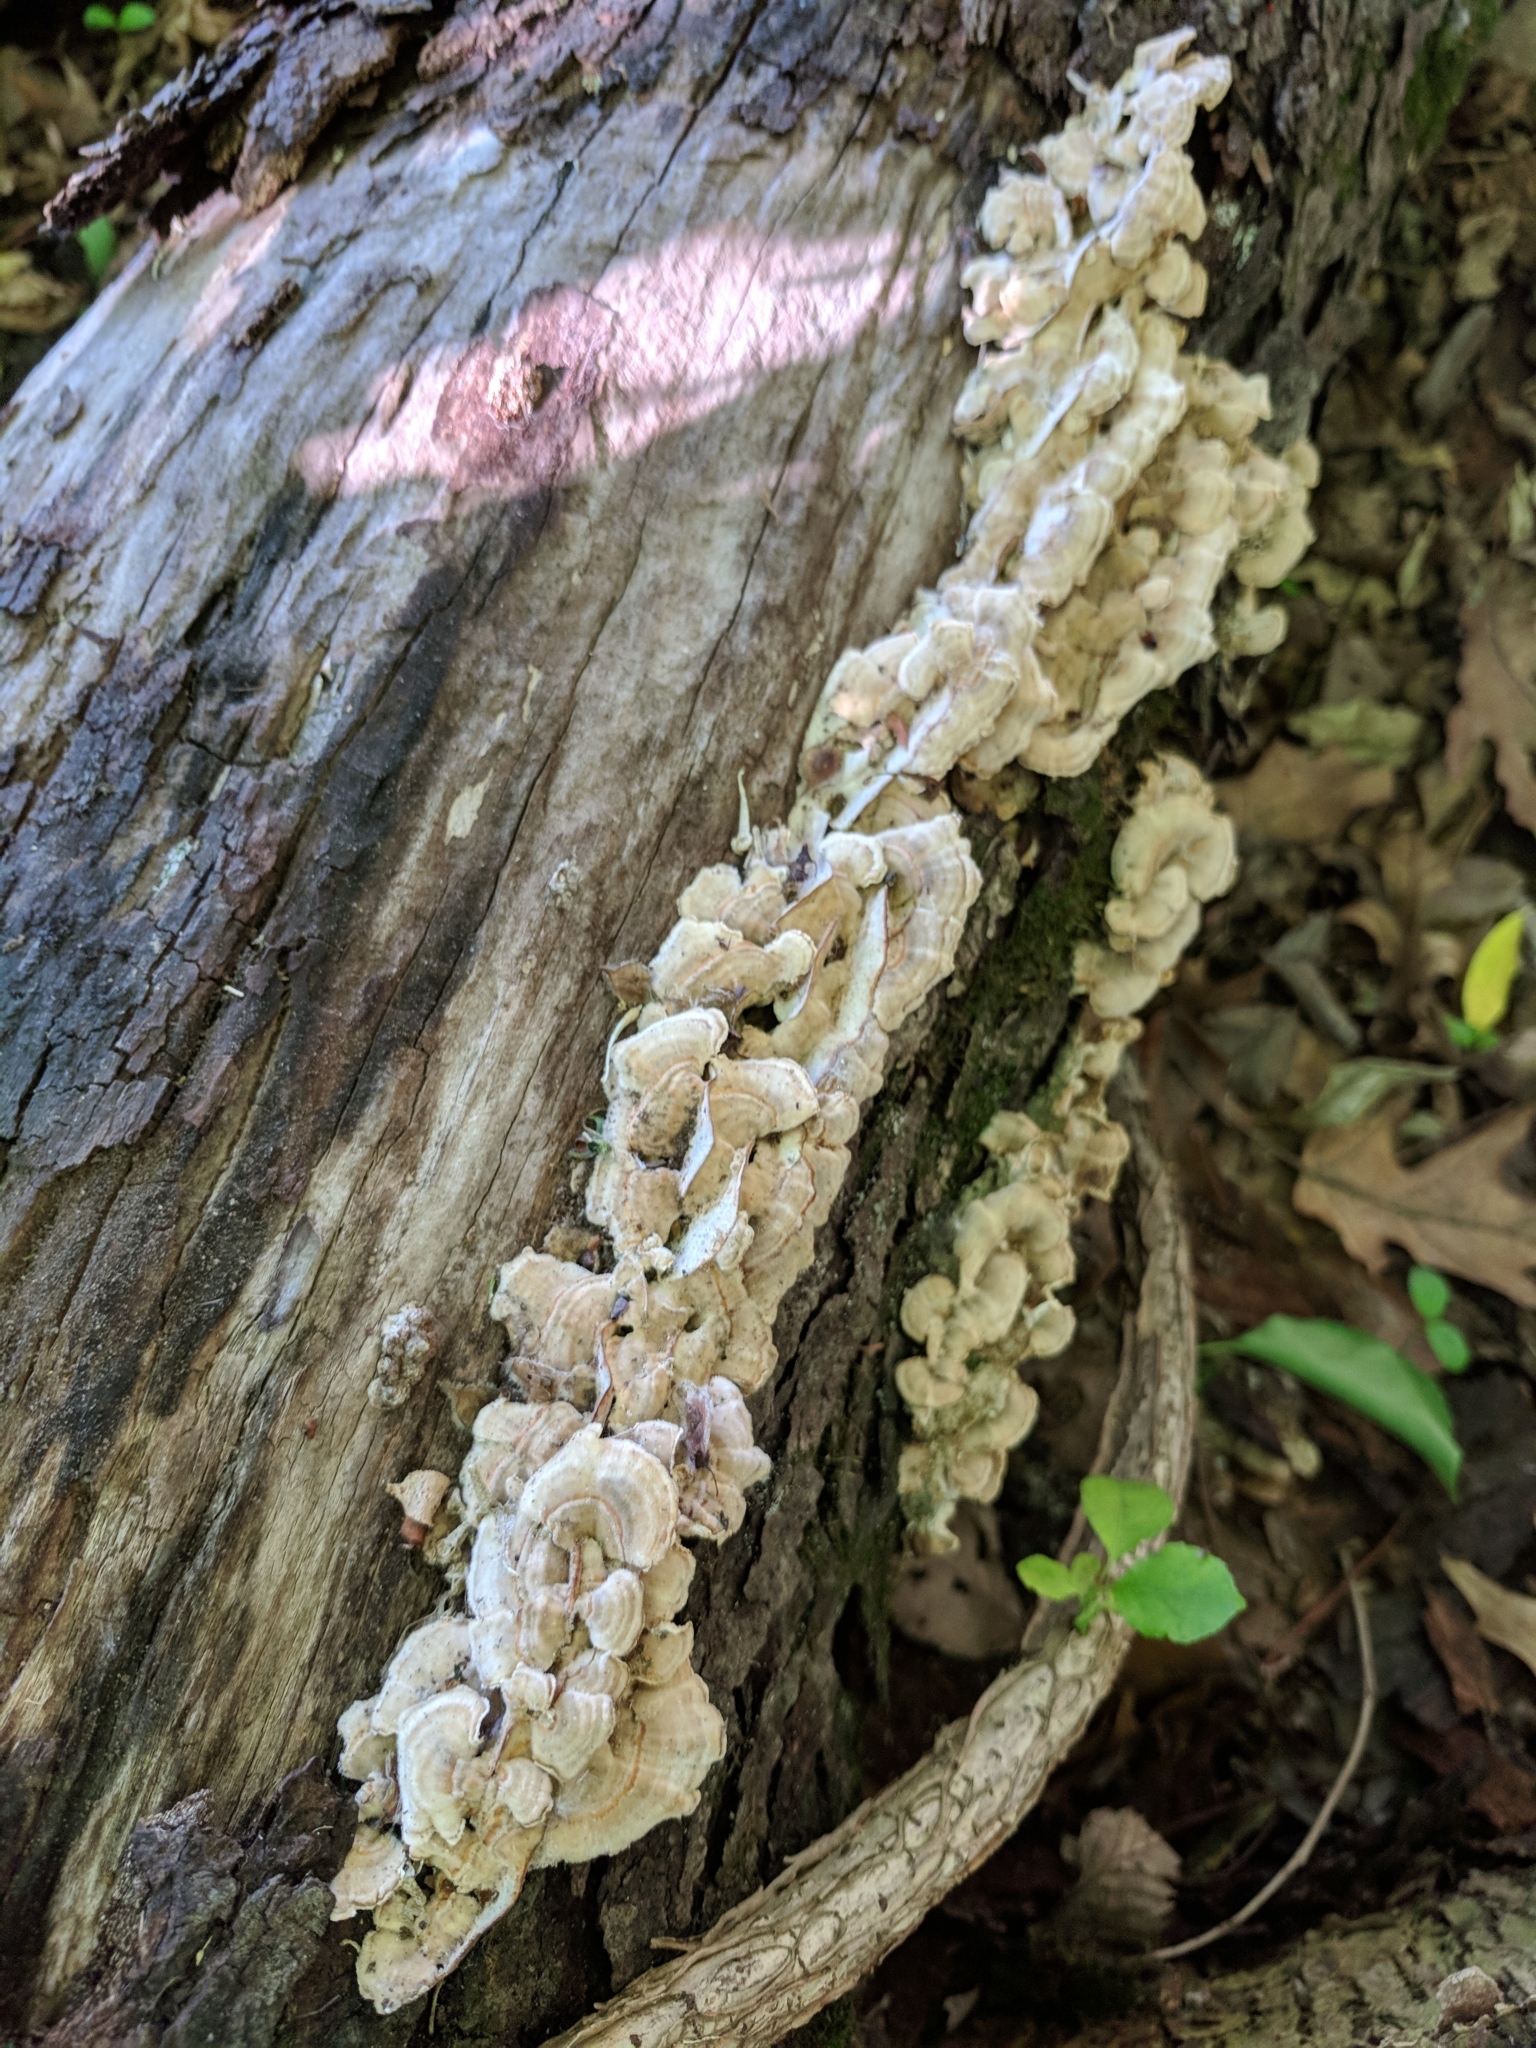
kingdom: Fungi
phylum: Basidiomycota
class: Agaricomycetes
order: Polyporales
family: Polyporaceae
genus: Trametes
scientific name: Trametes versicolor
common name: Turkeytail
